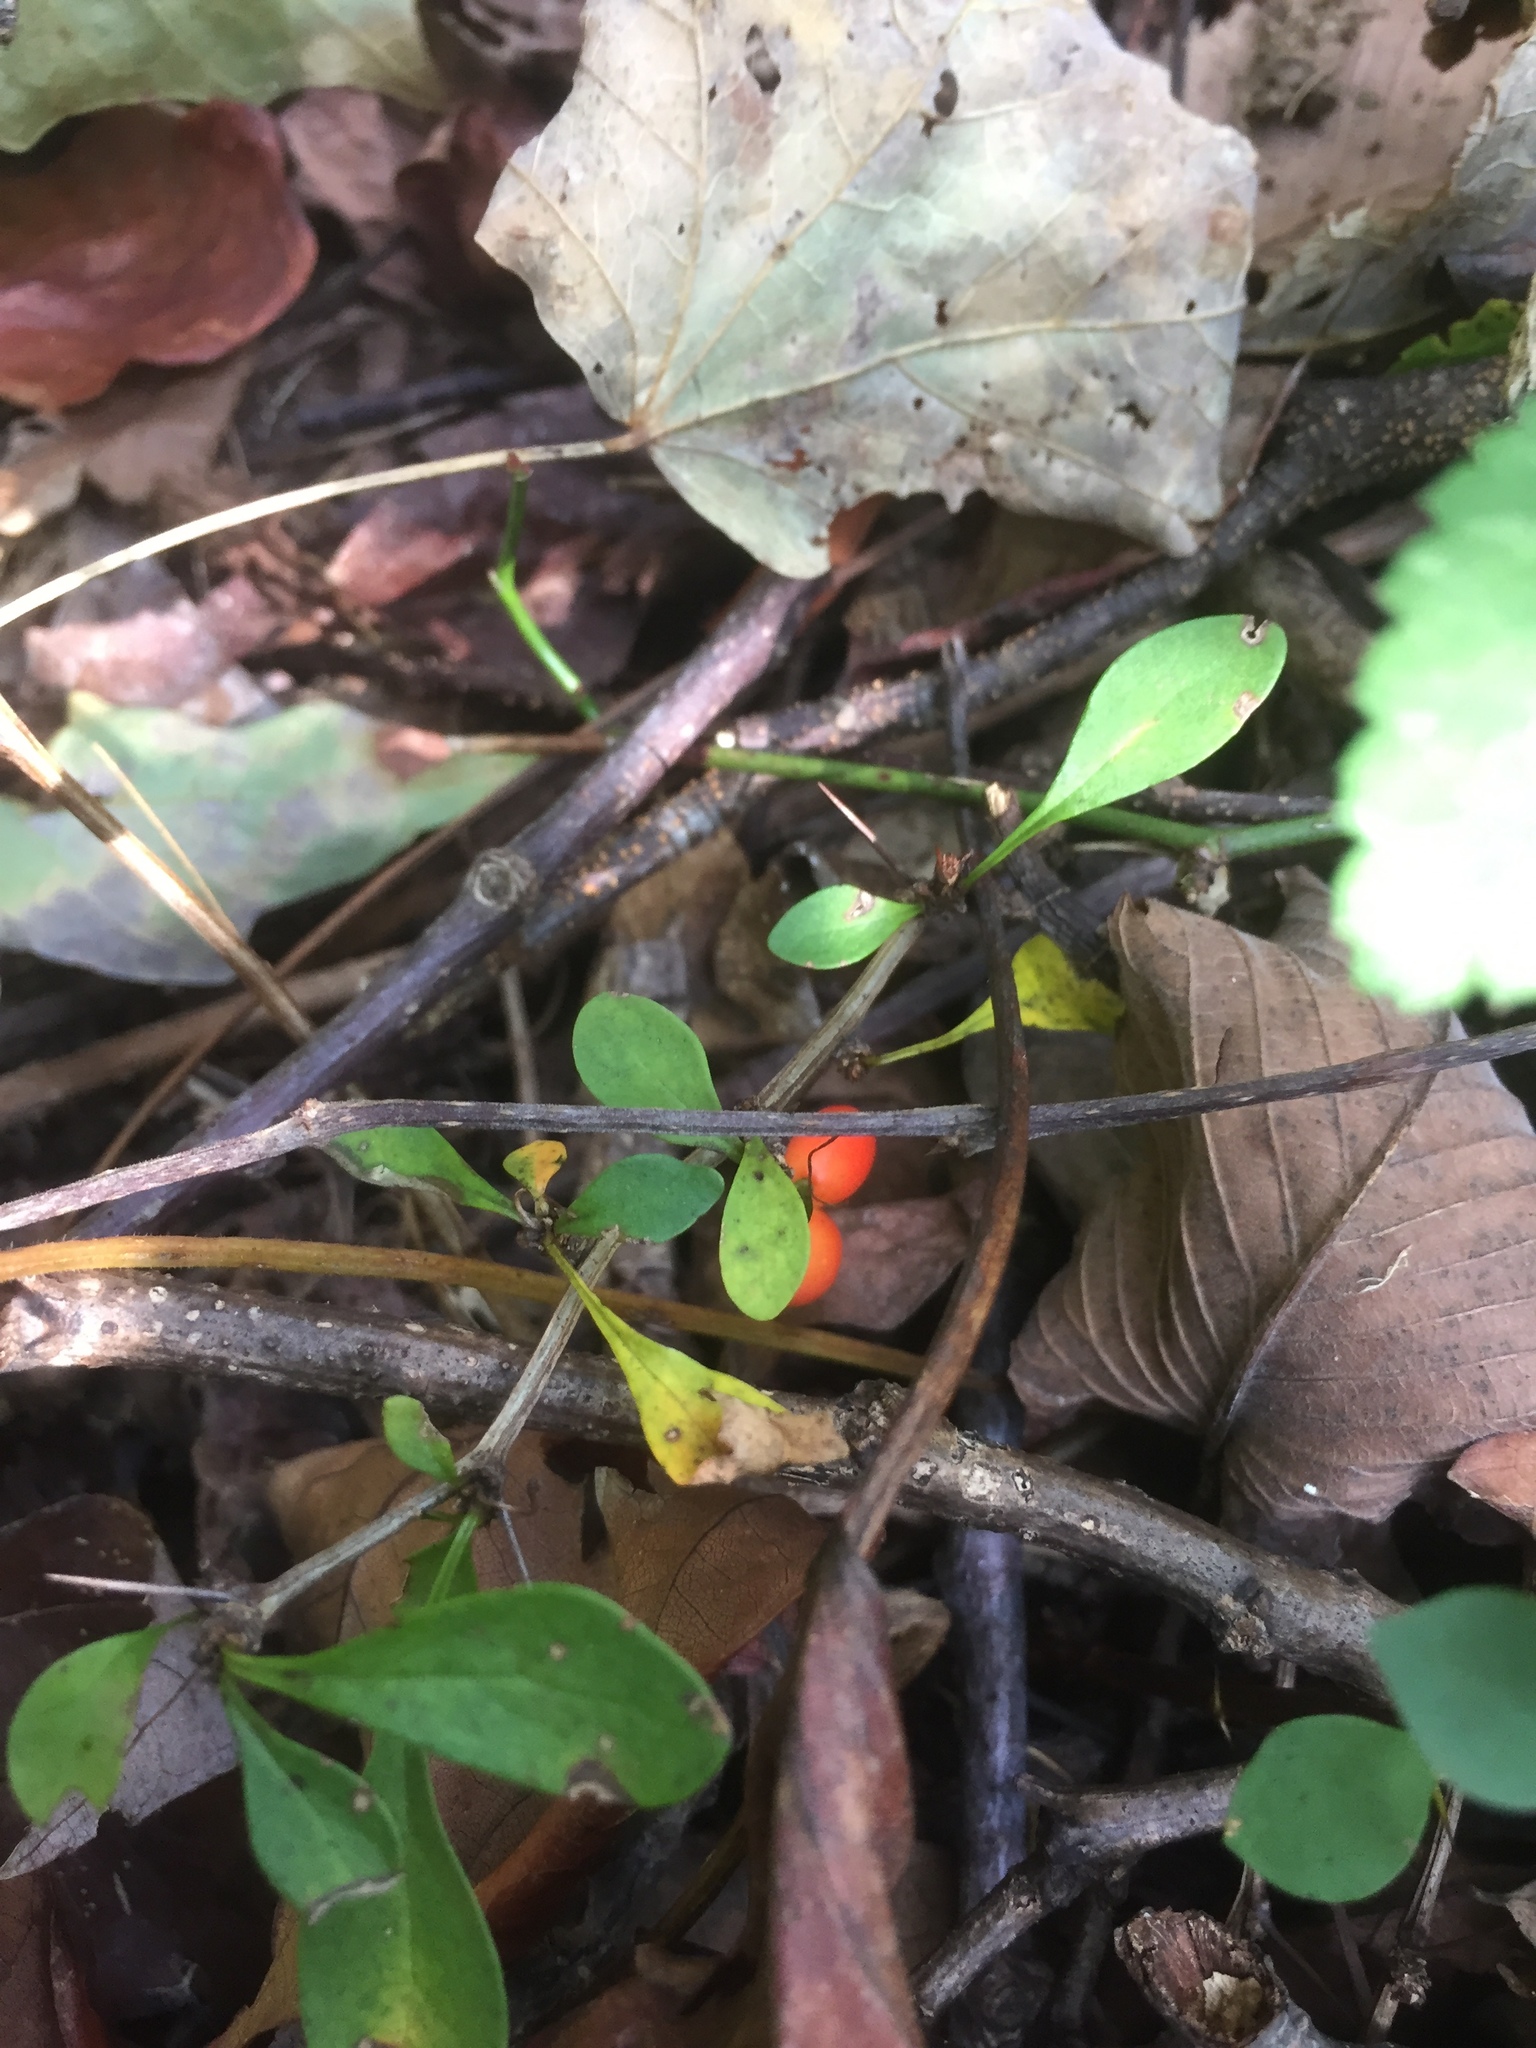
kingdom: Plantae
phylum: Tracheophyta
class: Magnoliopsida
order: Ranunculales
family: Berberidaceae
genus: Berberis
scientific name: Berberis thunbergii
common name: Japanese barberry
